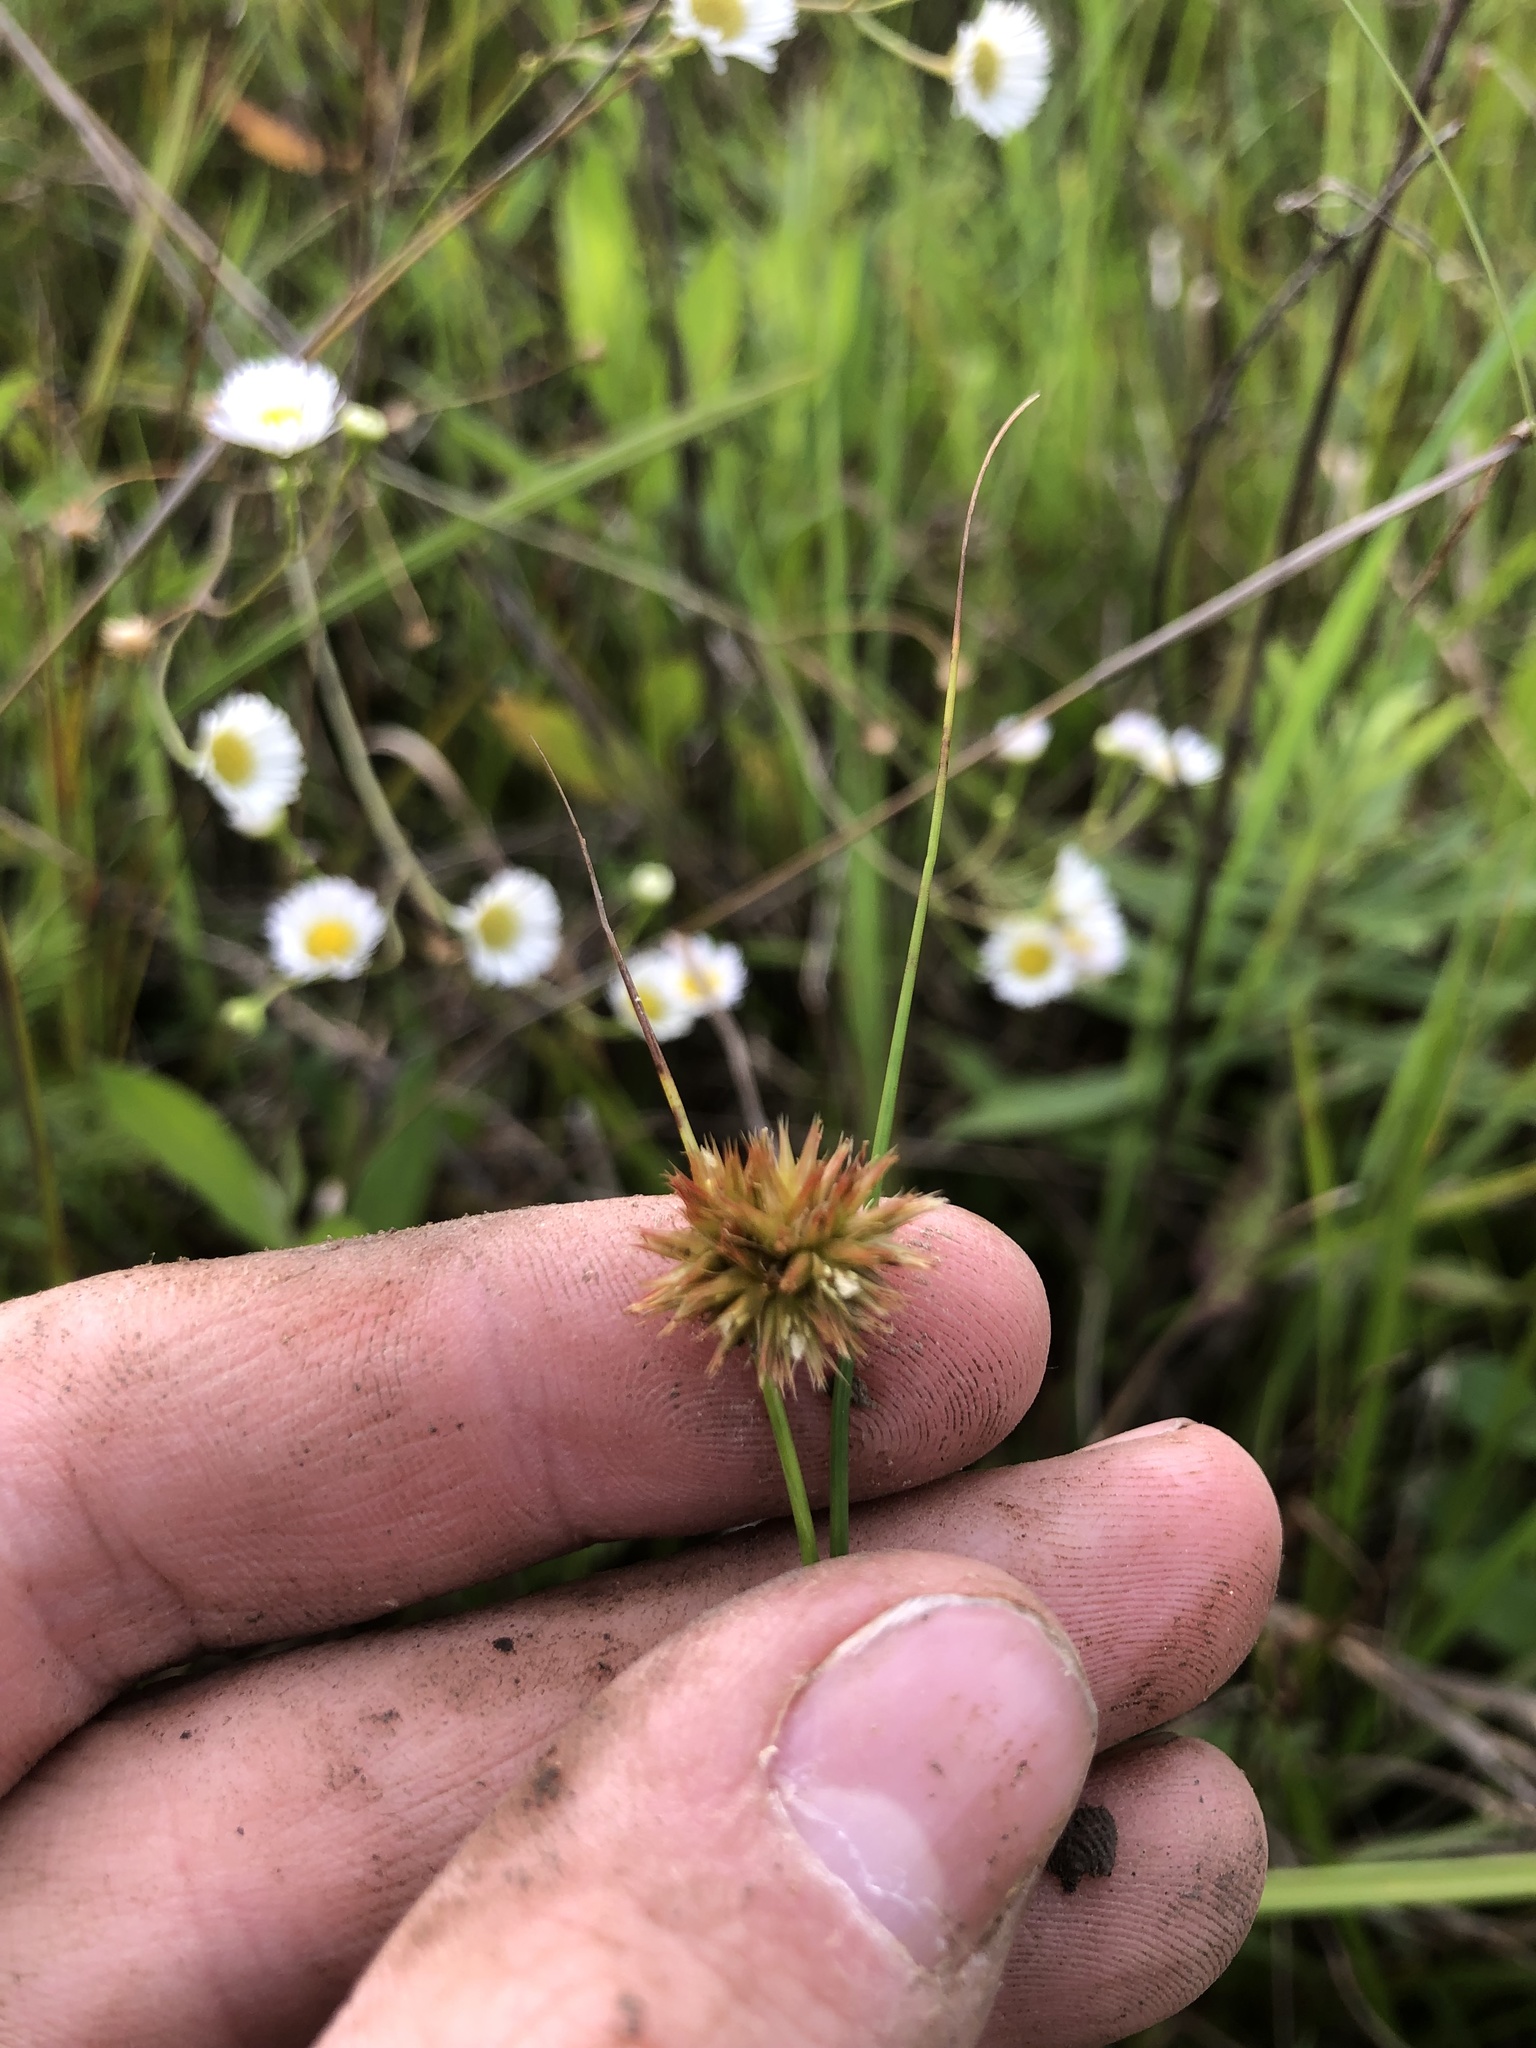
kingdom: Plantae
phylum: Tracheophyta
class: Liliopsida
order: Poales
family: Juncaceae
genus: Juncus
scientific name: Juncus torreyi
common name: Torrey's rush
